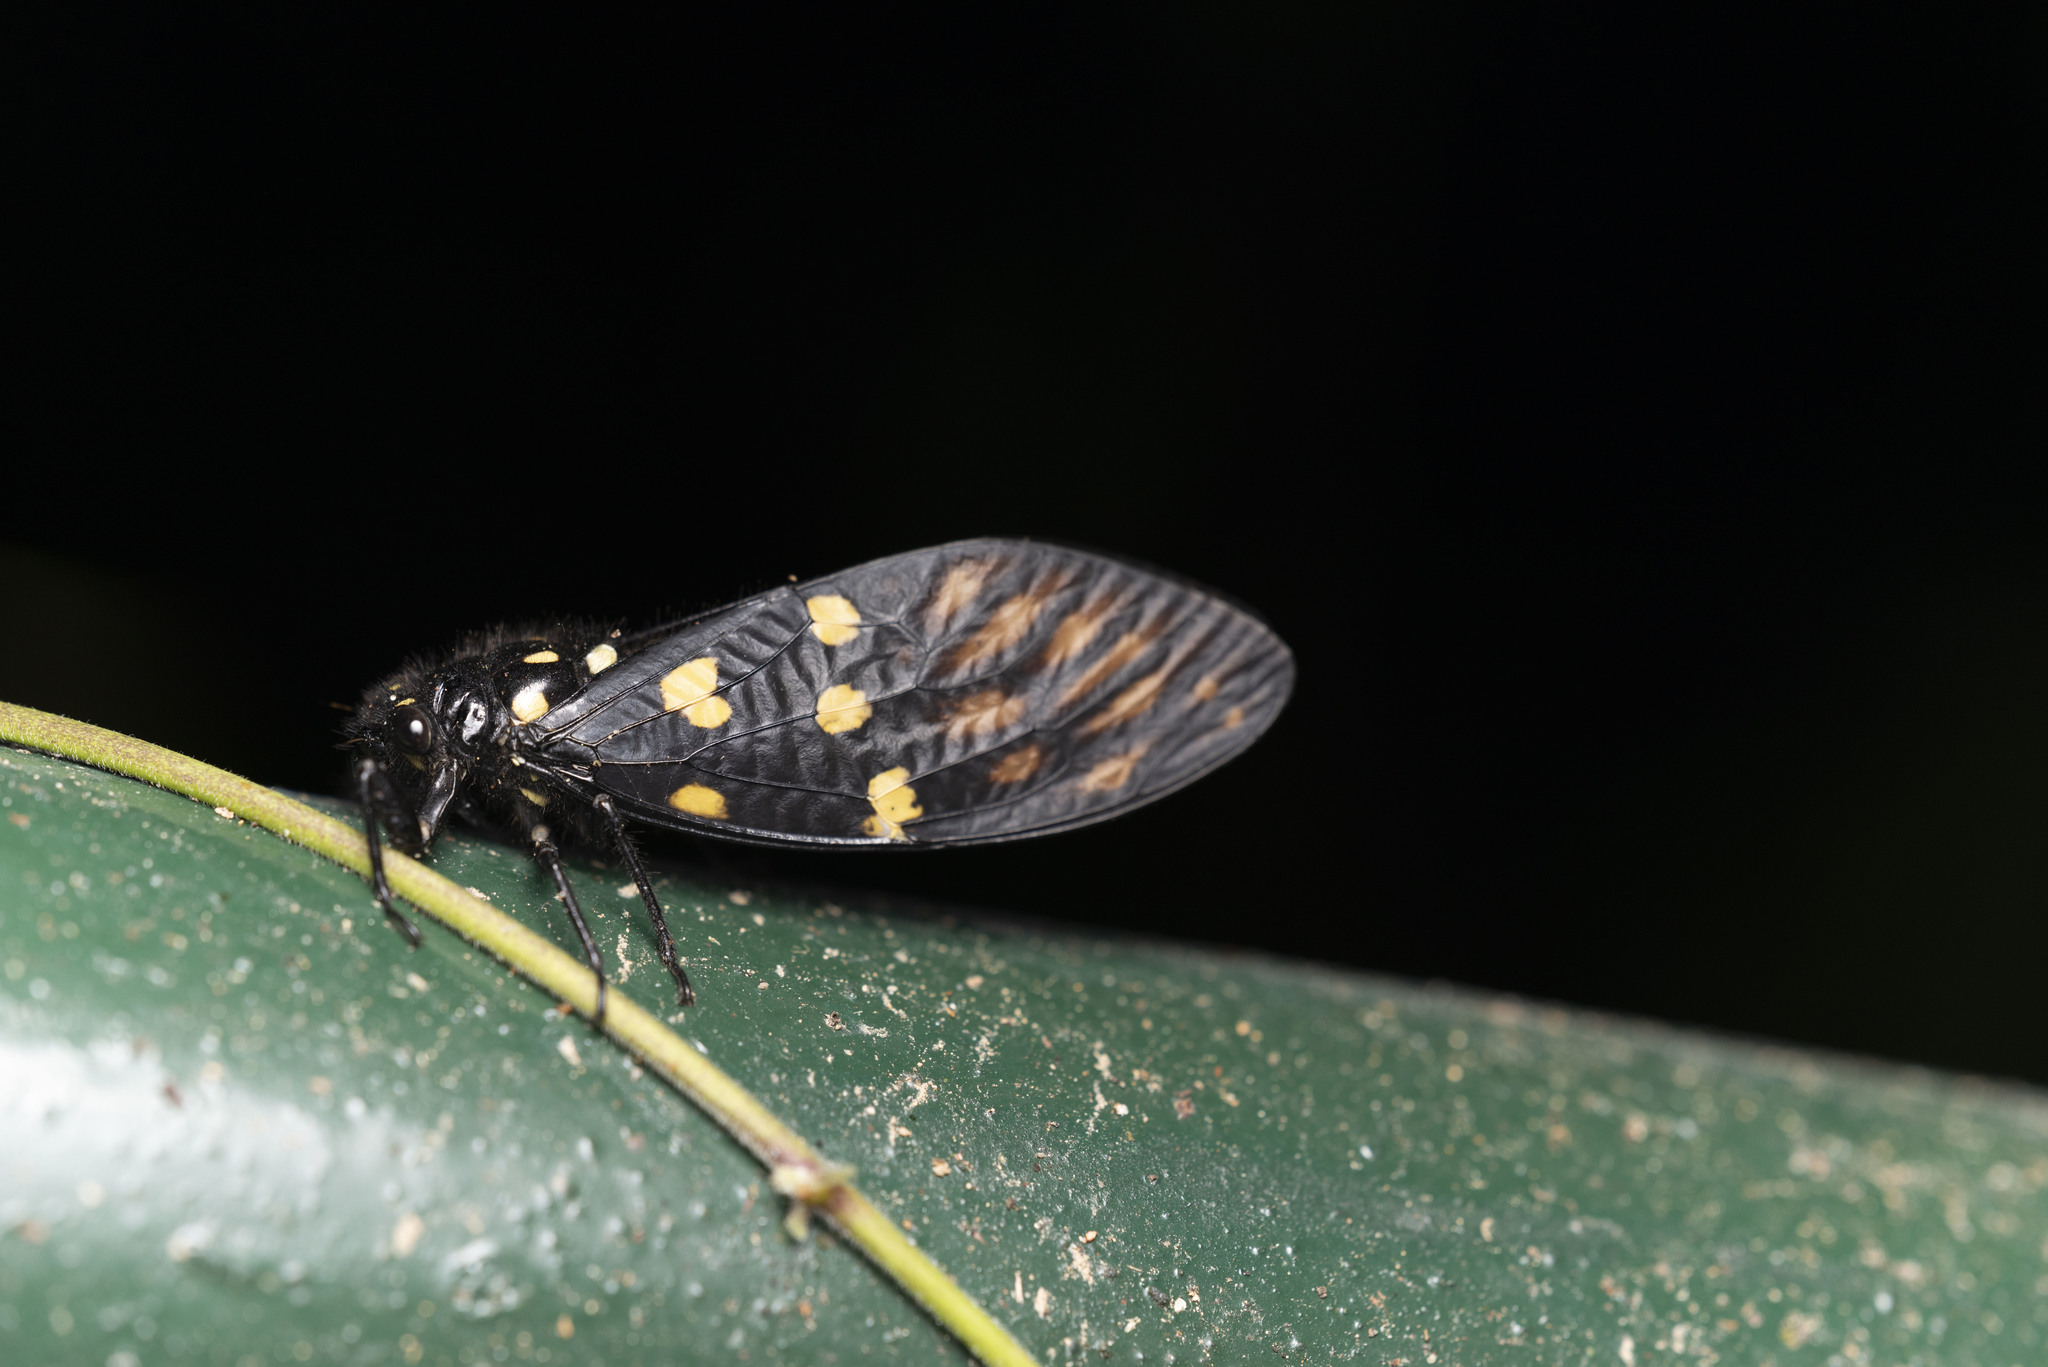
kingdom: Animalia
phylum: Arthropoda
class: Insecta
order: Hemiptera
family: Cicadidae
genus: Gaeana
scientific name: Gaeana maculata
